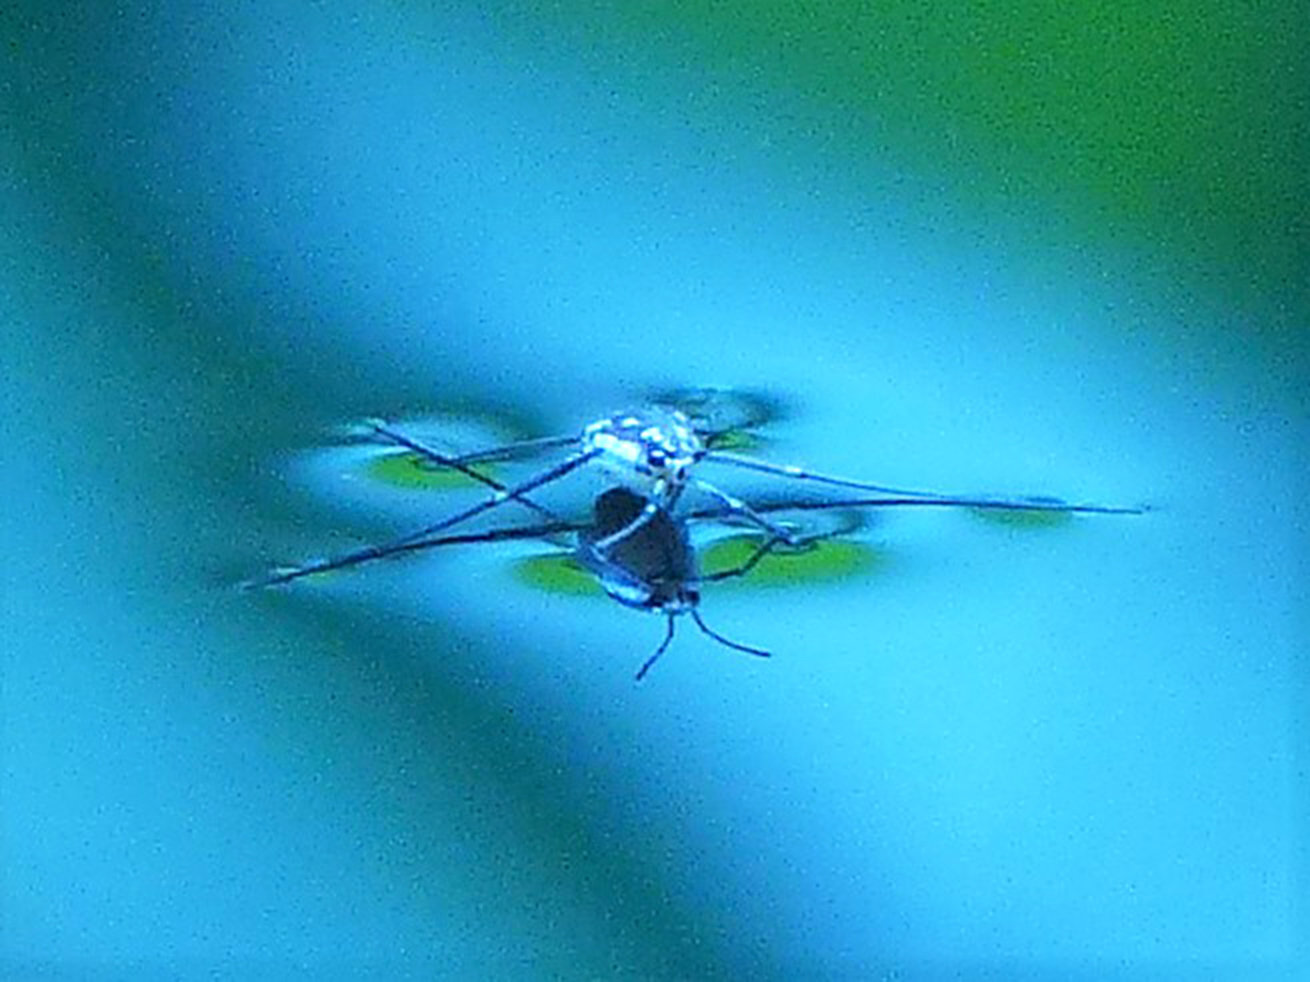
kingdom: Animalia
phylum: Arthropoda
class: Insecta
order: Hemiptera
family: Gerridae
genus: Trepobates
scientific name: Trepobates subnitidus
